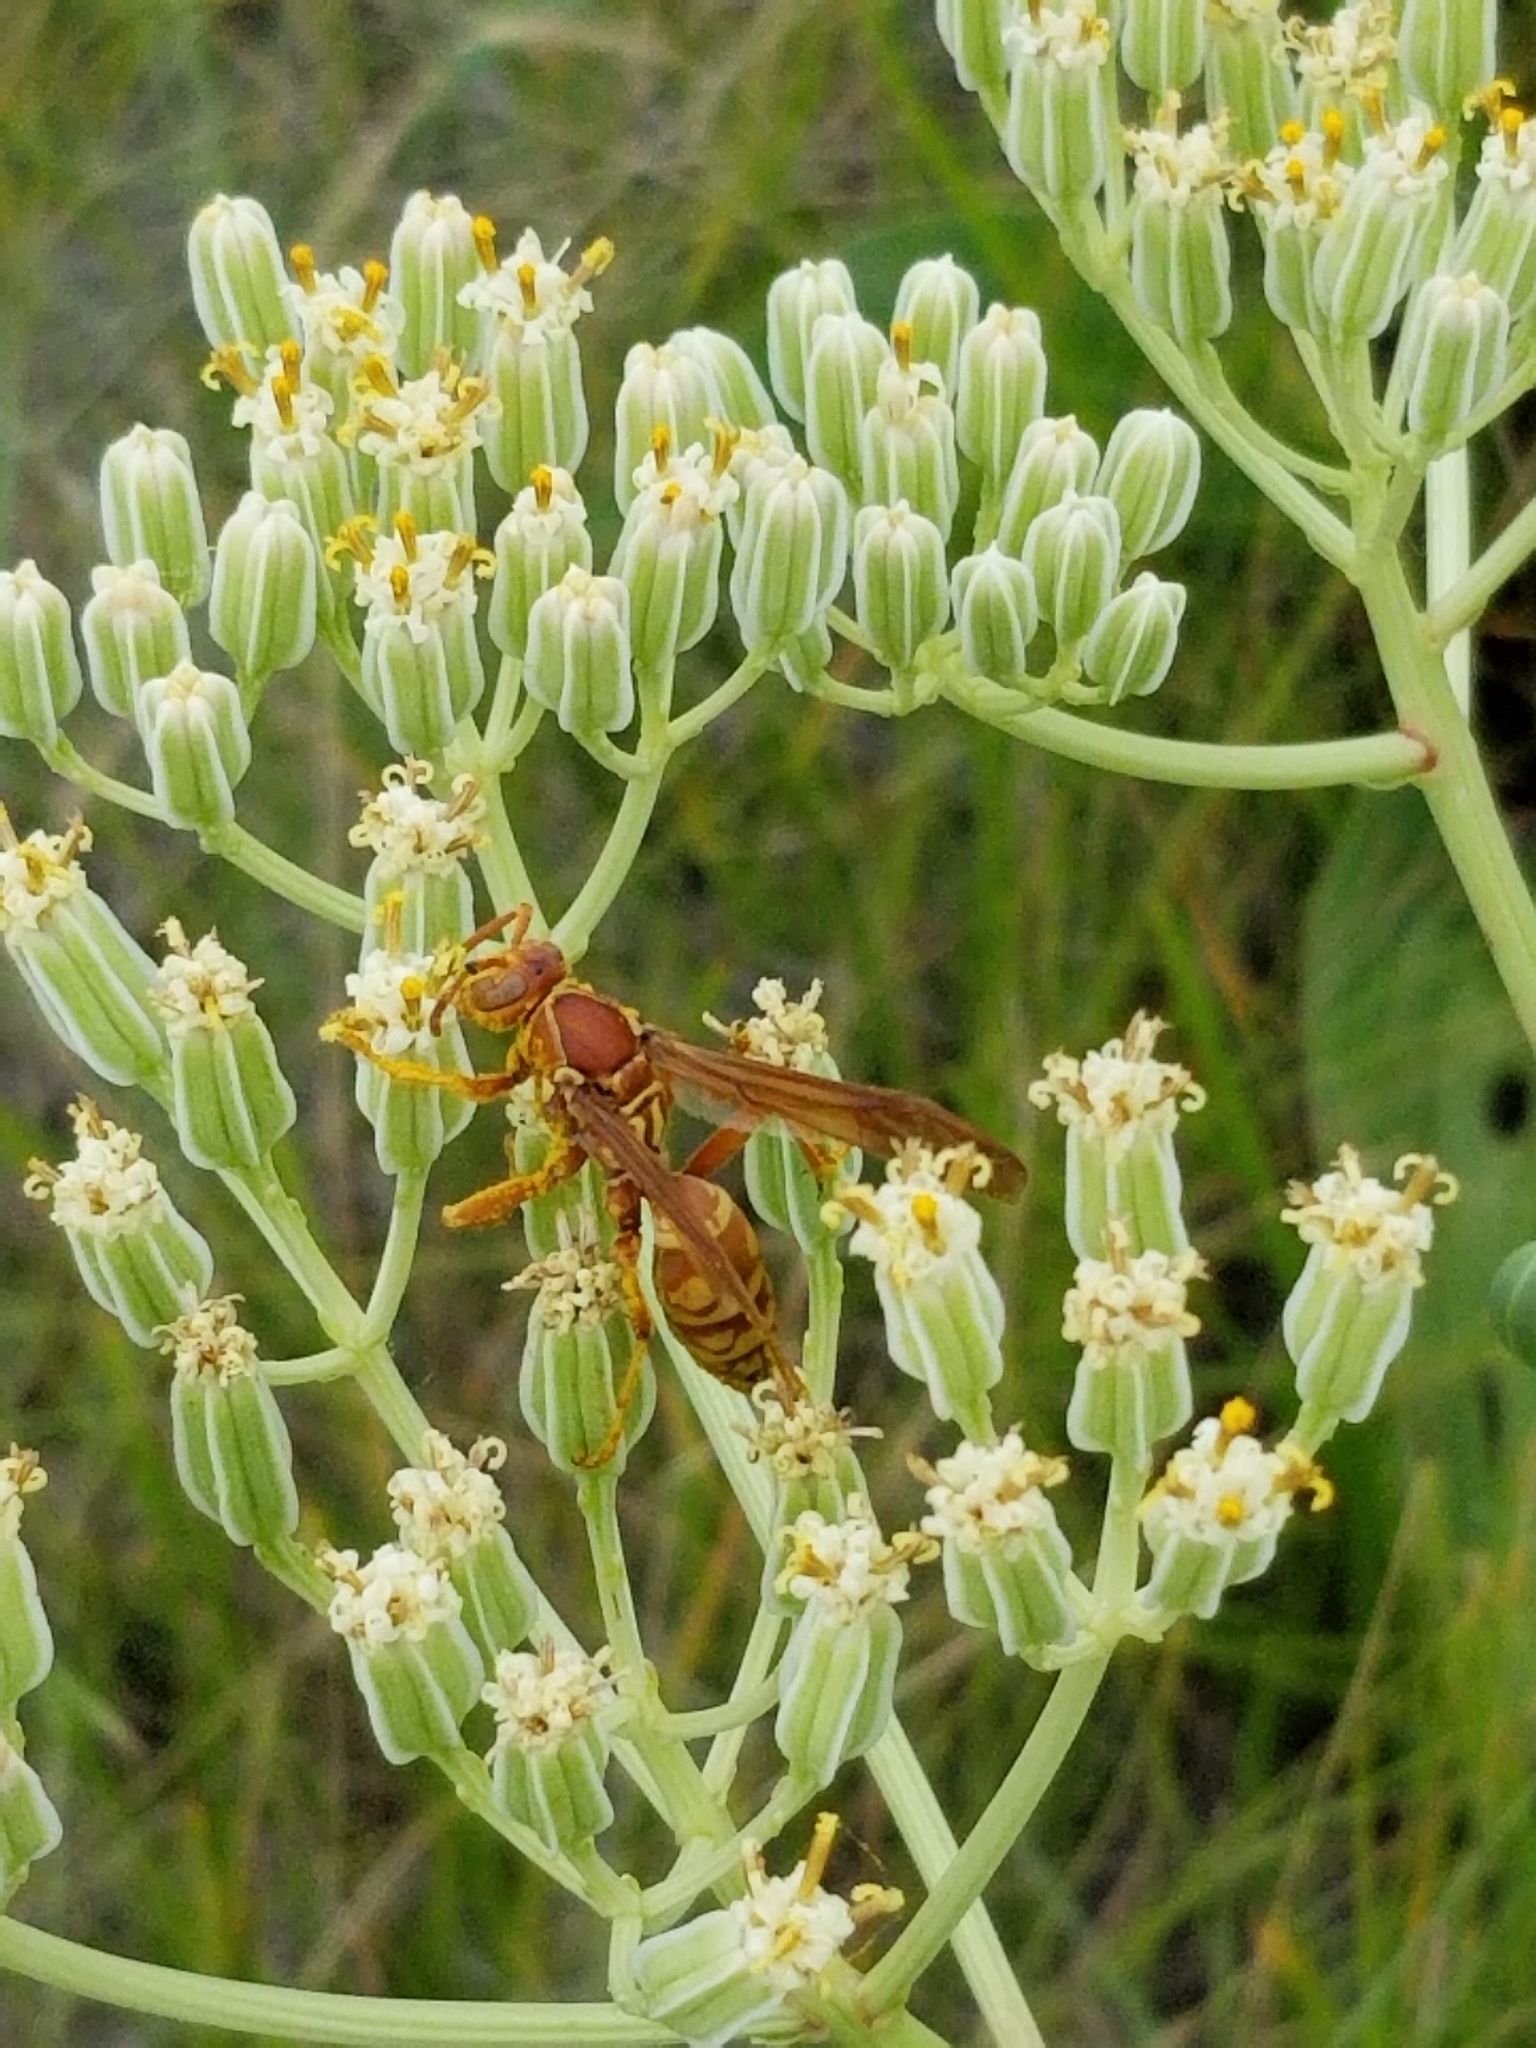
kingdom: Animalia
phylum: Arthropoda
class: Insecta
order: Hymenoptera
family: Eumenidae
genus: Polistes
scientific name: Polistes apachus
